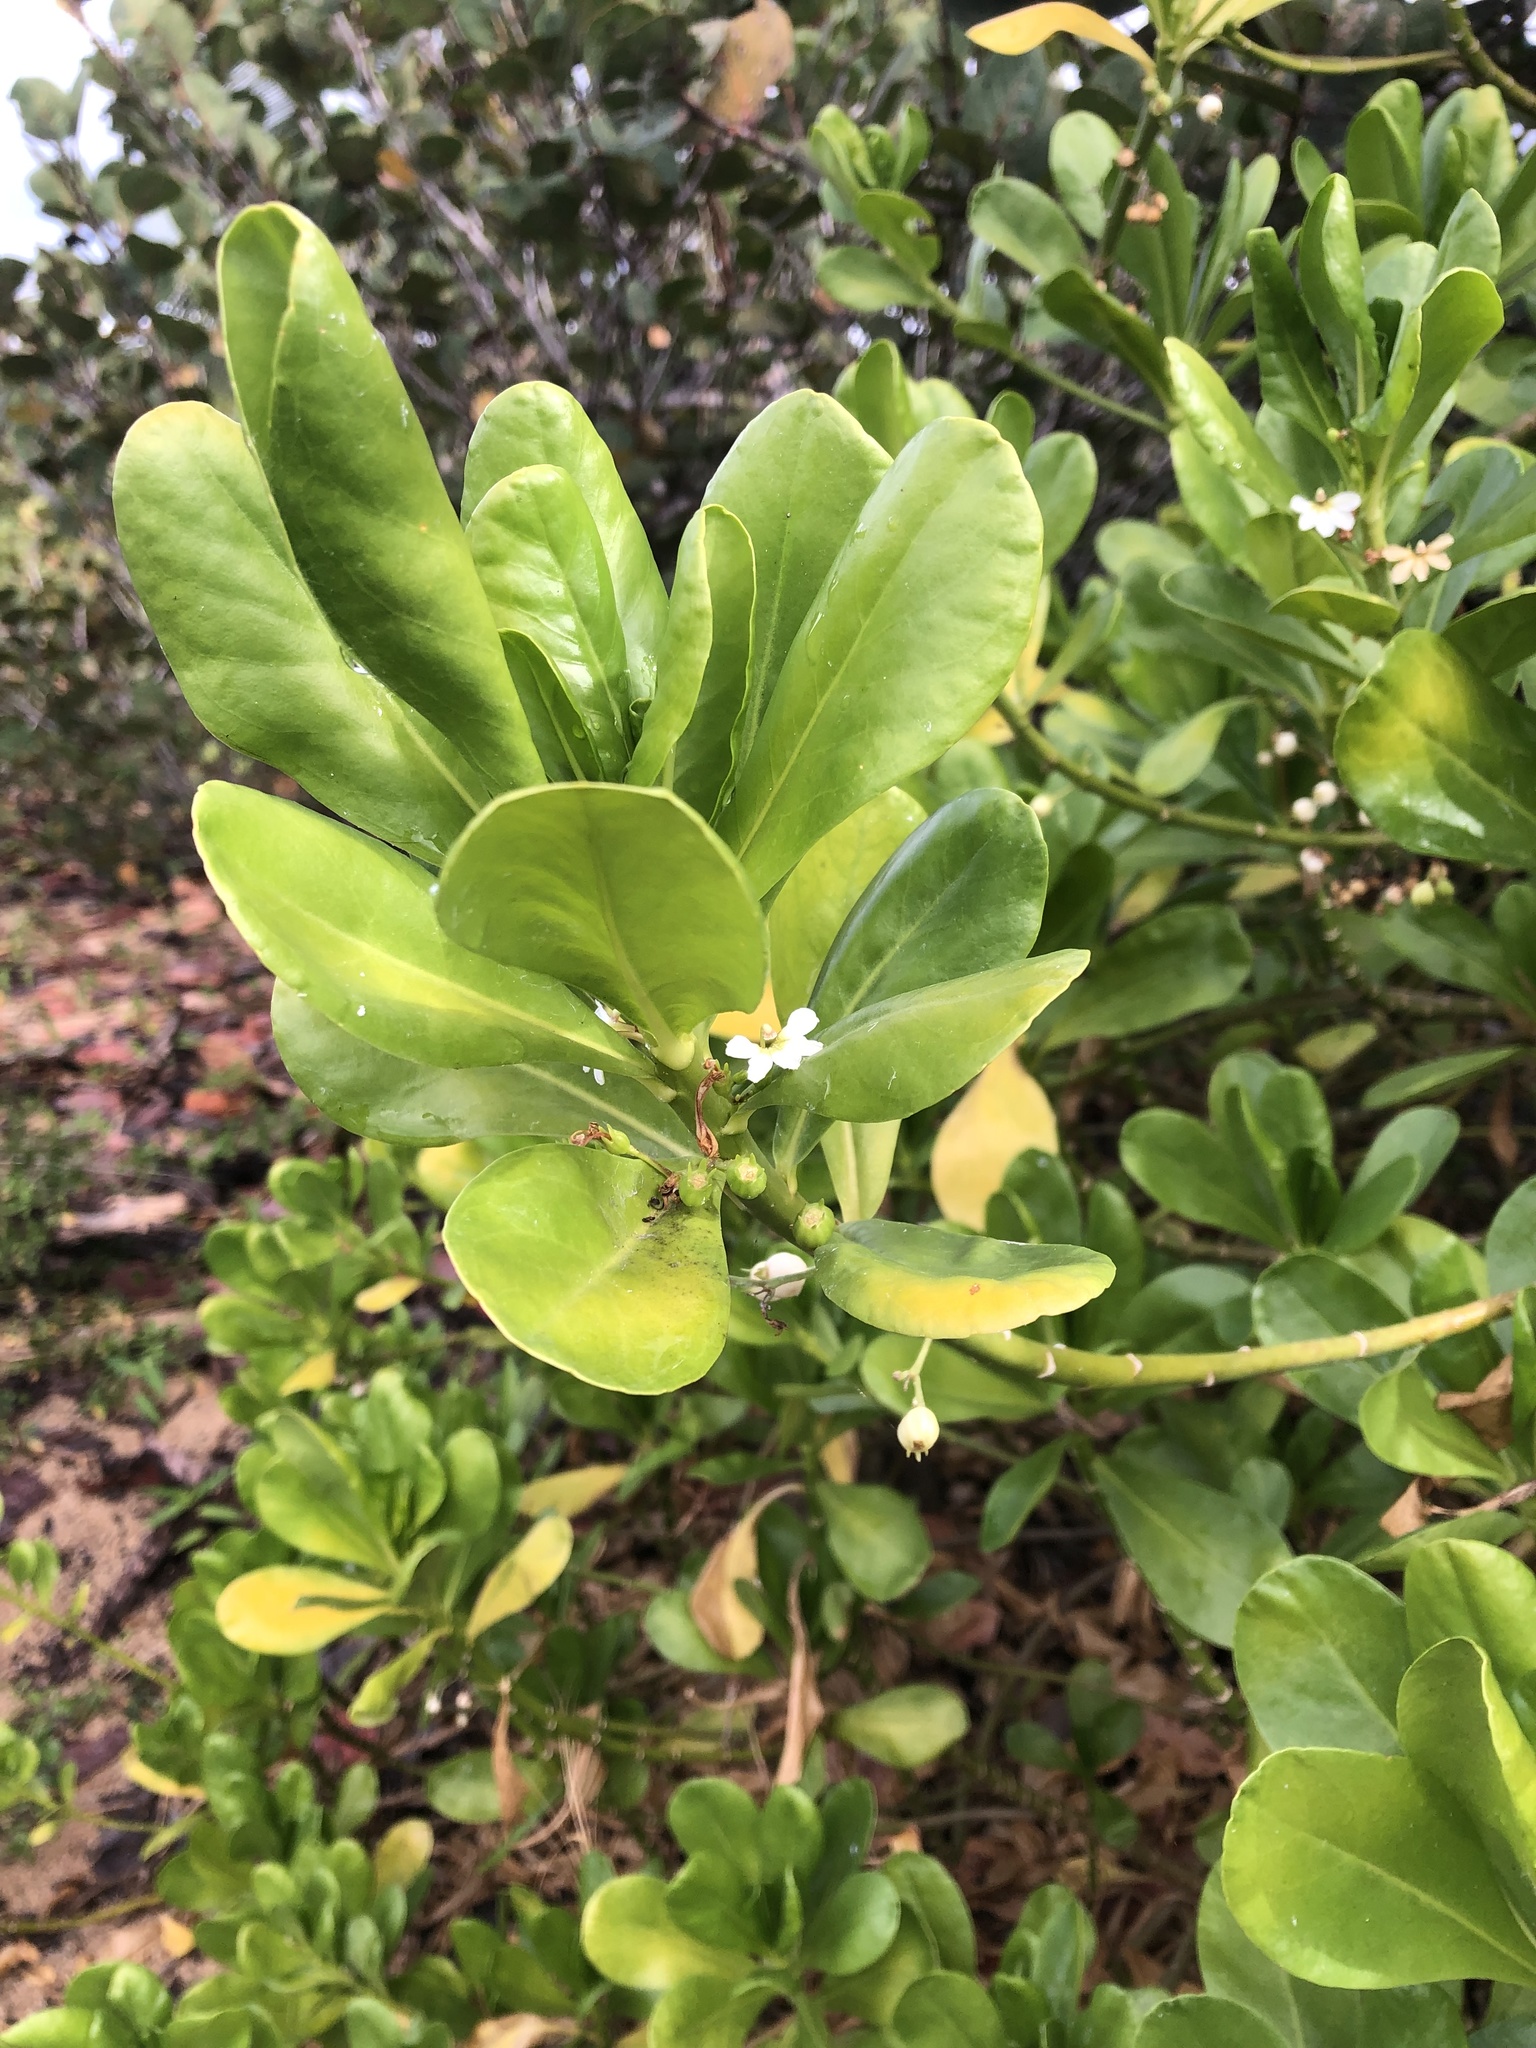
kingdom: Plantae
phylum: Tracheophyta
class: Magnoliopsida
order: Asterales
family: Goodeniaceae
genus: Scaevola
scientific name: Scaevola taccada
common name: Sea lettucetree
